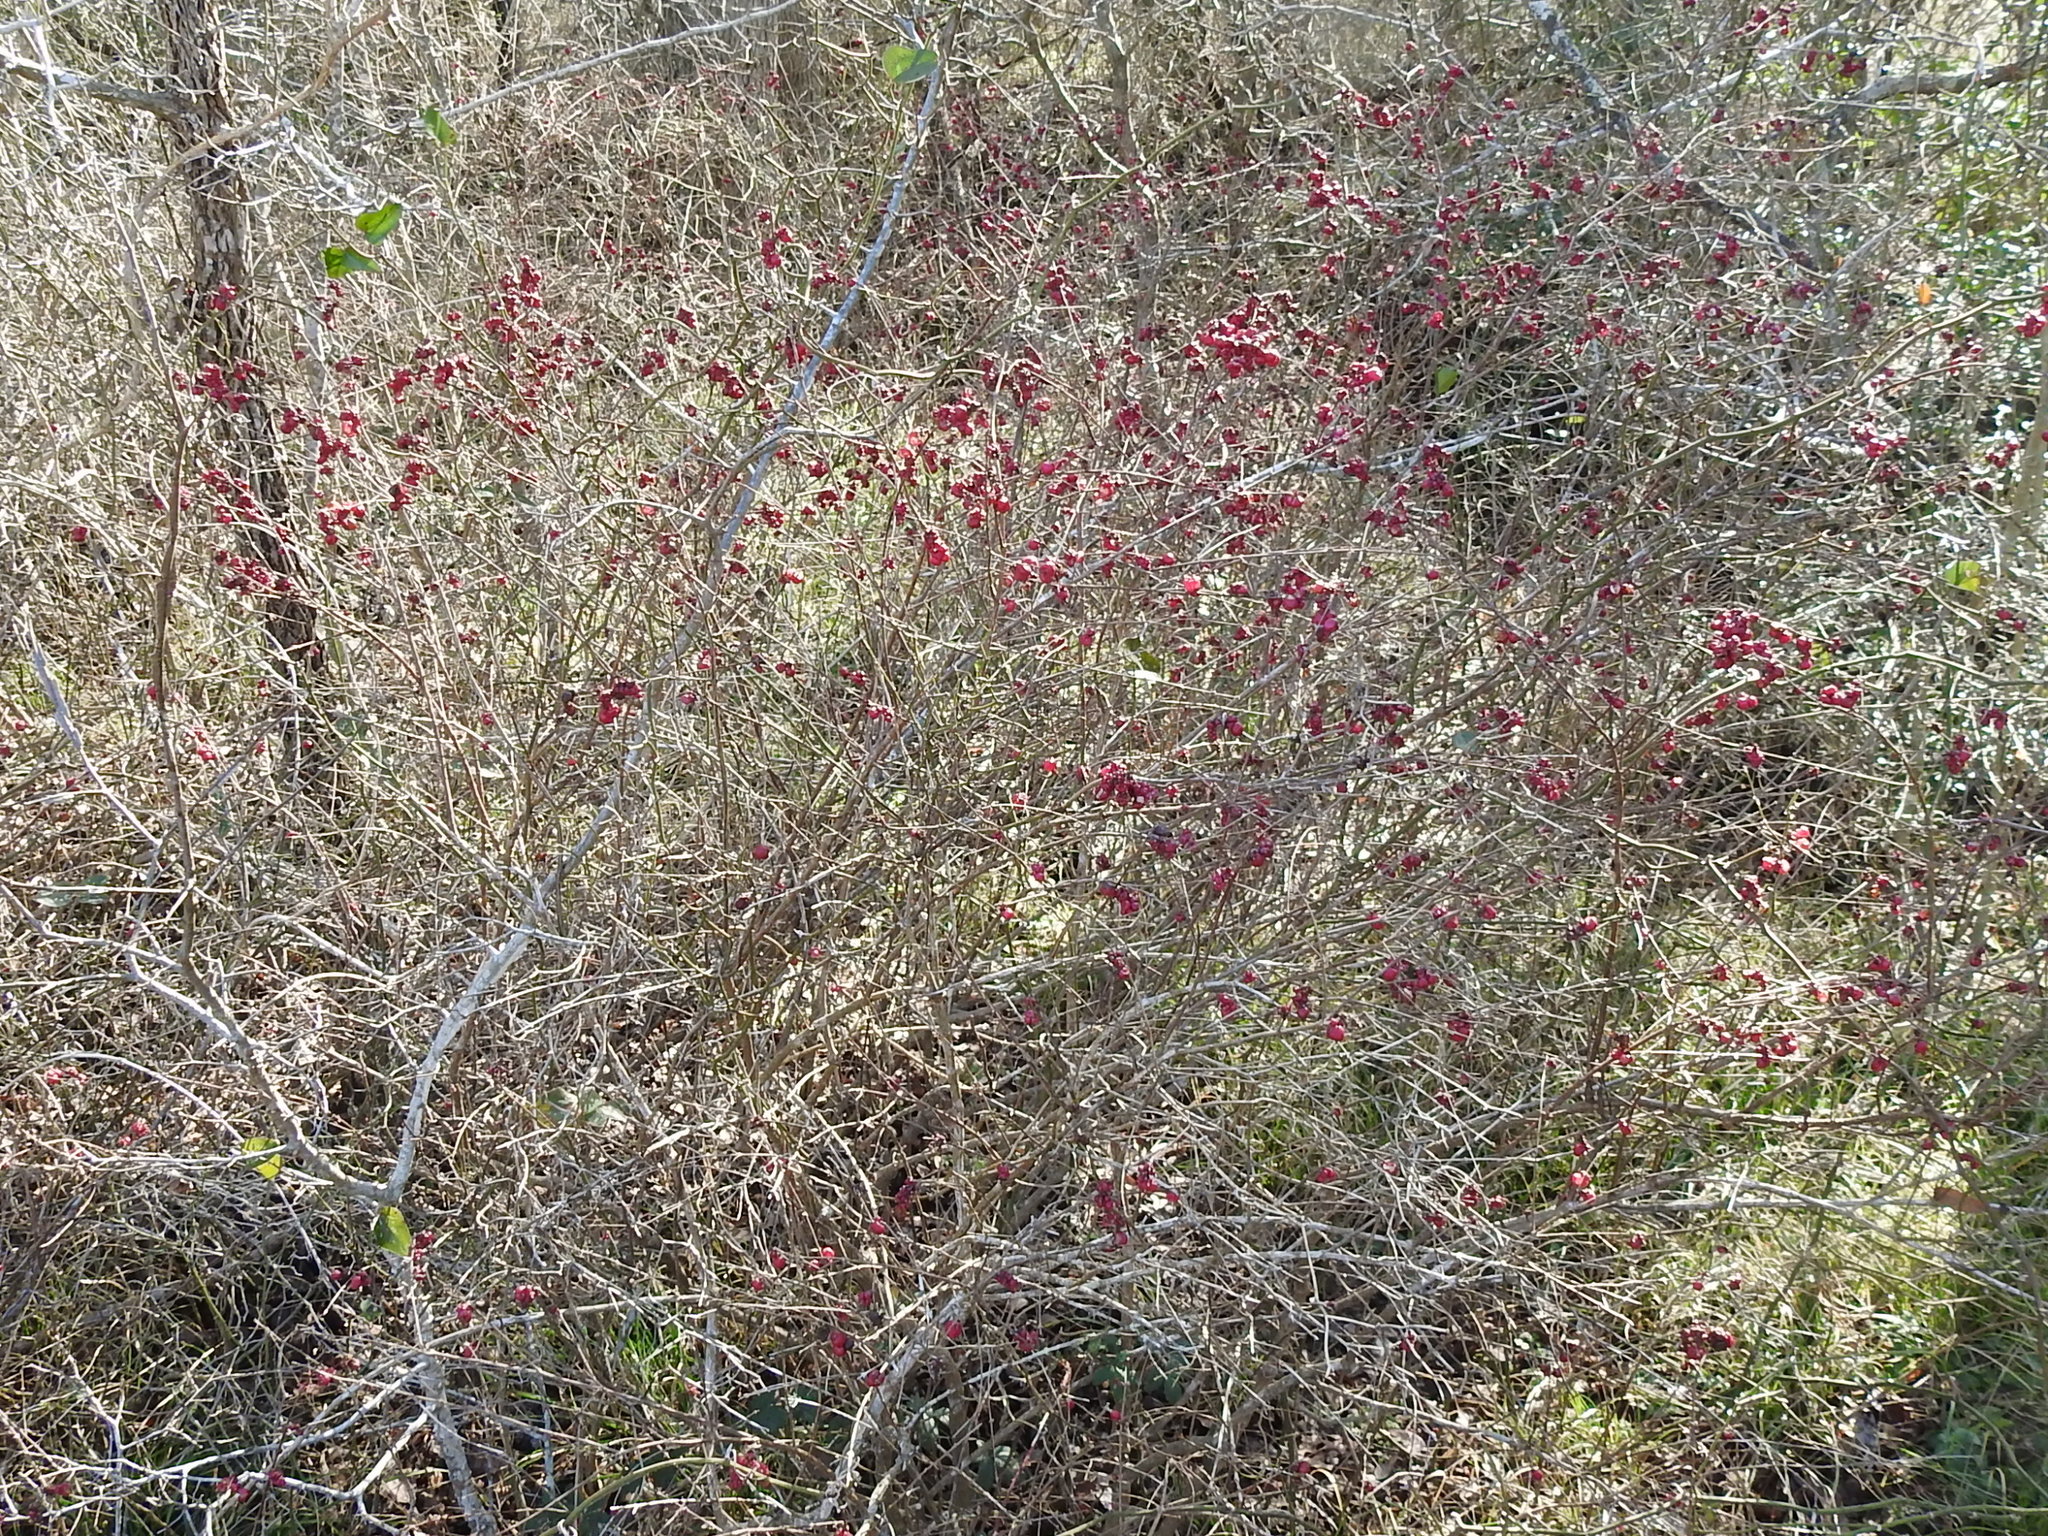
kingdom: Plantae
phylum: Tracheophyta
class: Magnoliopsida
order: Dipsacales
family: Caprifoliaceae
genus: Symphoricarpos
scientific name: Symphoricarpos orbiculatus
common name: Coralberry
